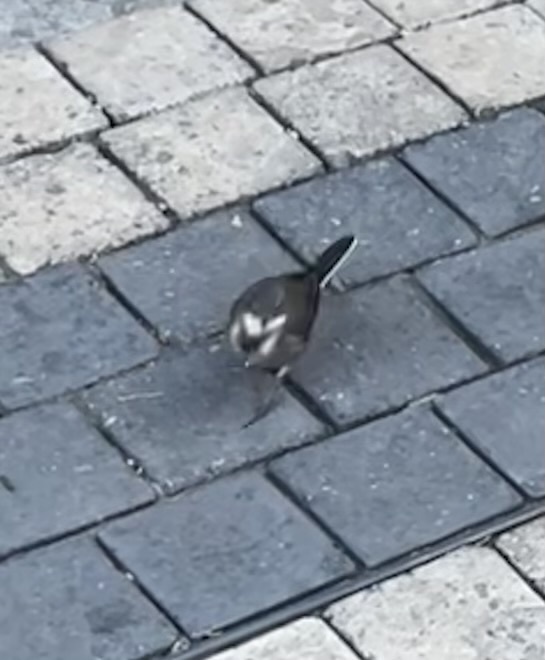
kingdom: Animalia
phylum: Chordata
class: Aves
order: Passeriformes
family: Motacillidae
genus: Motacilla
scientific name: Motacilla capensis
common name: Cape wagtail
